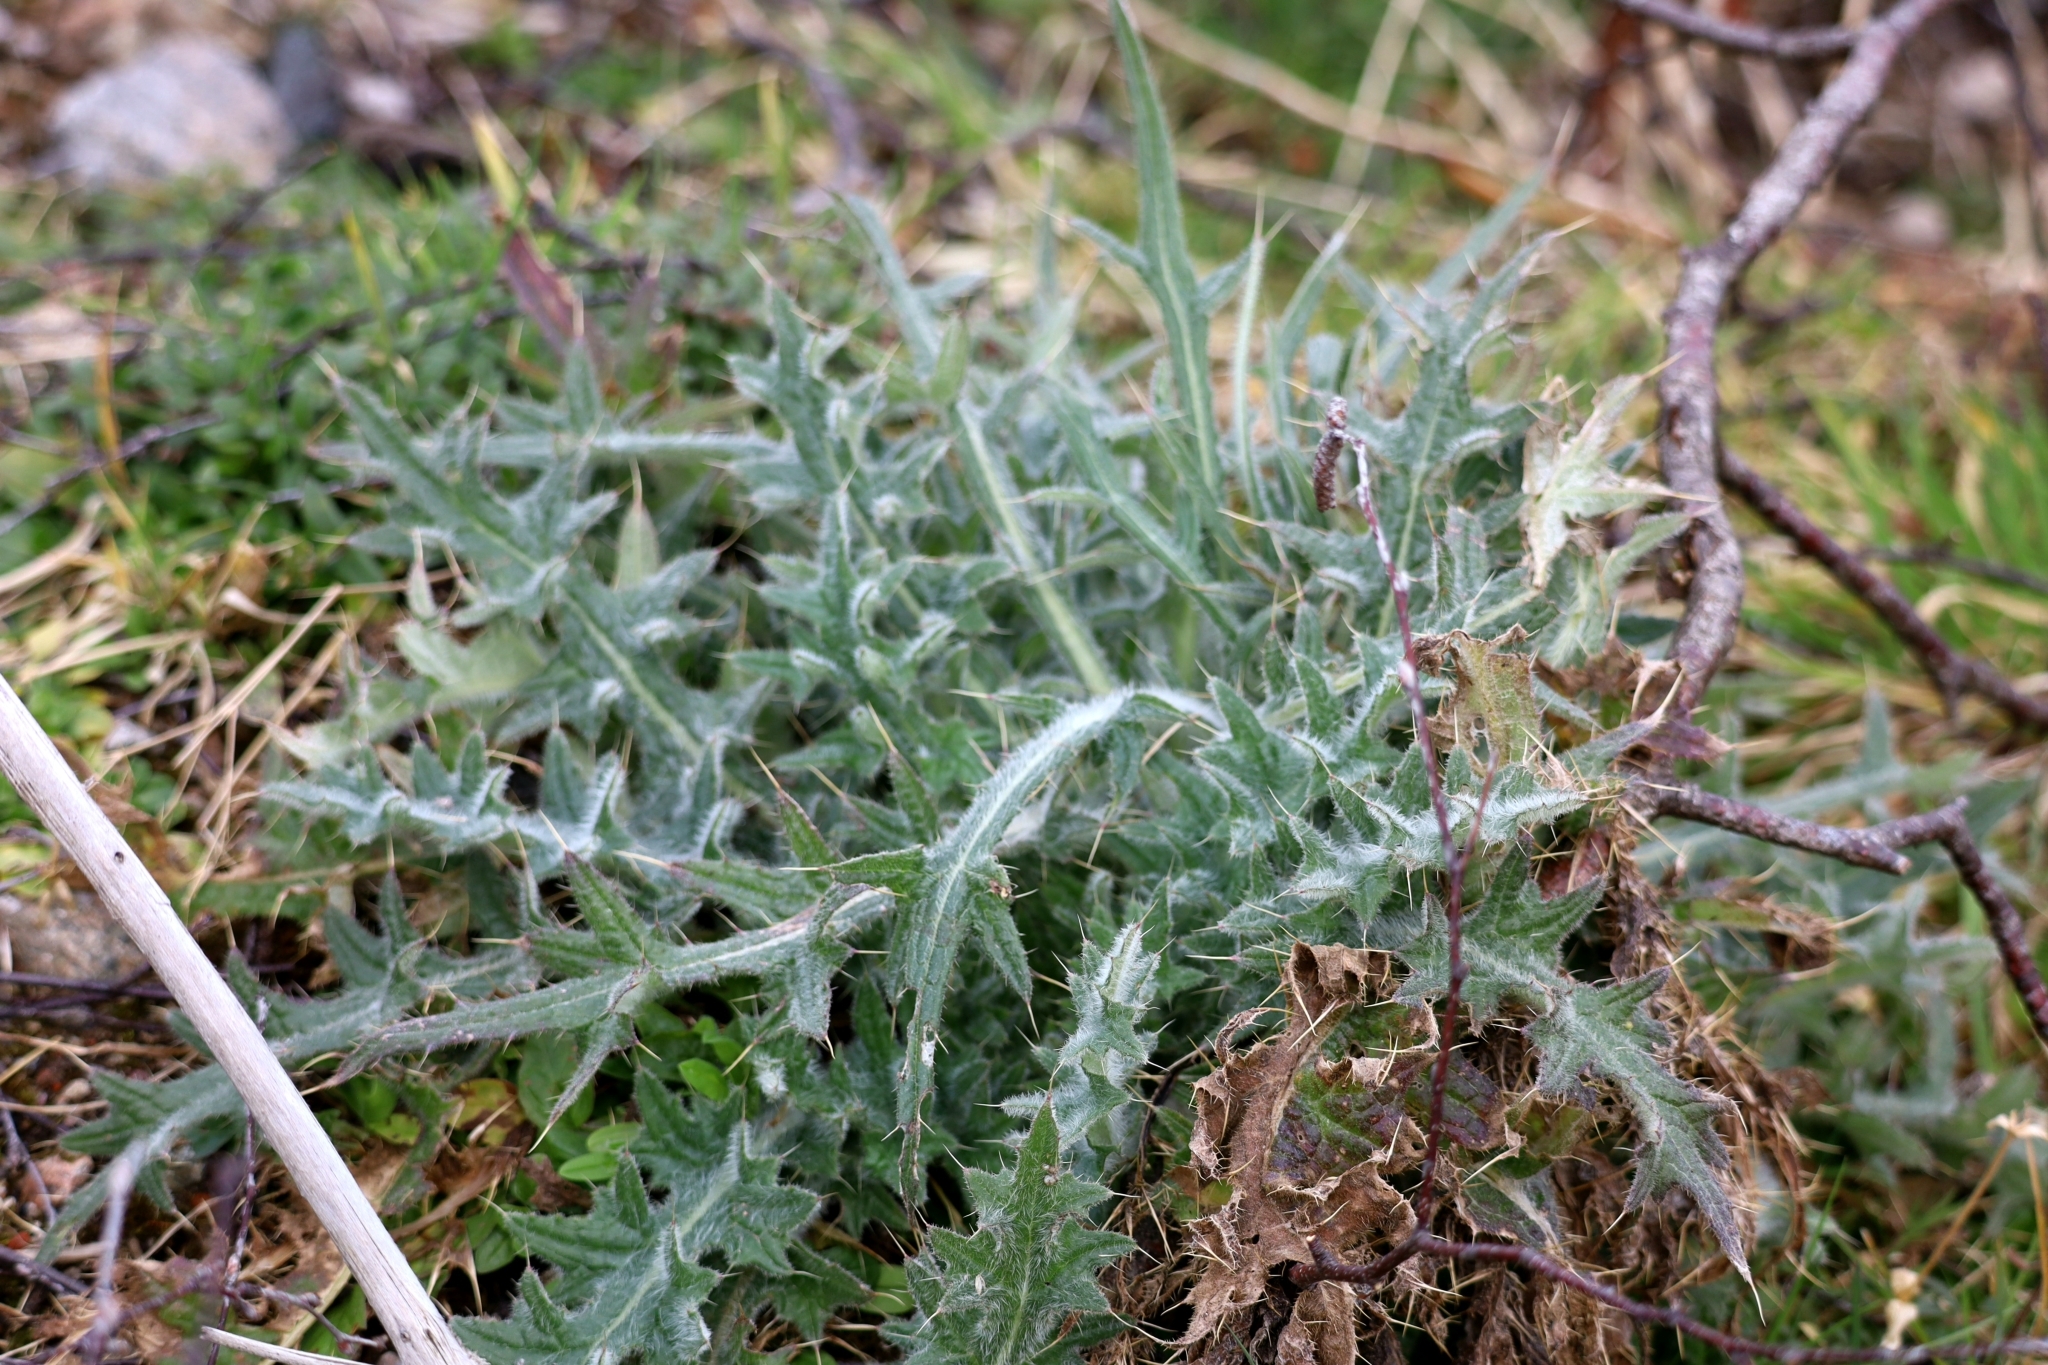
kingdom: Plantae
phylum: Tracheophyta
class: Magnoliopsida
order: Asterales
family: Asteraceae
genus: Cirsium
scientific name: Cirsium vulgare
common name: Bull thistle
